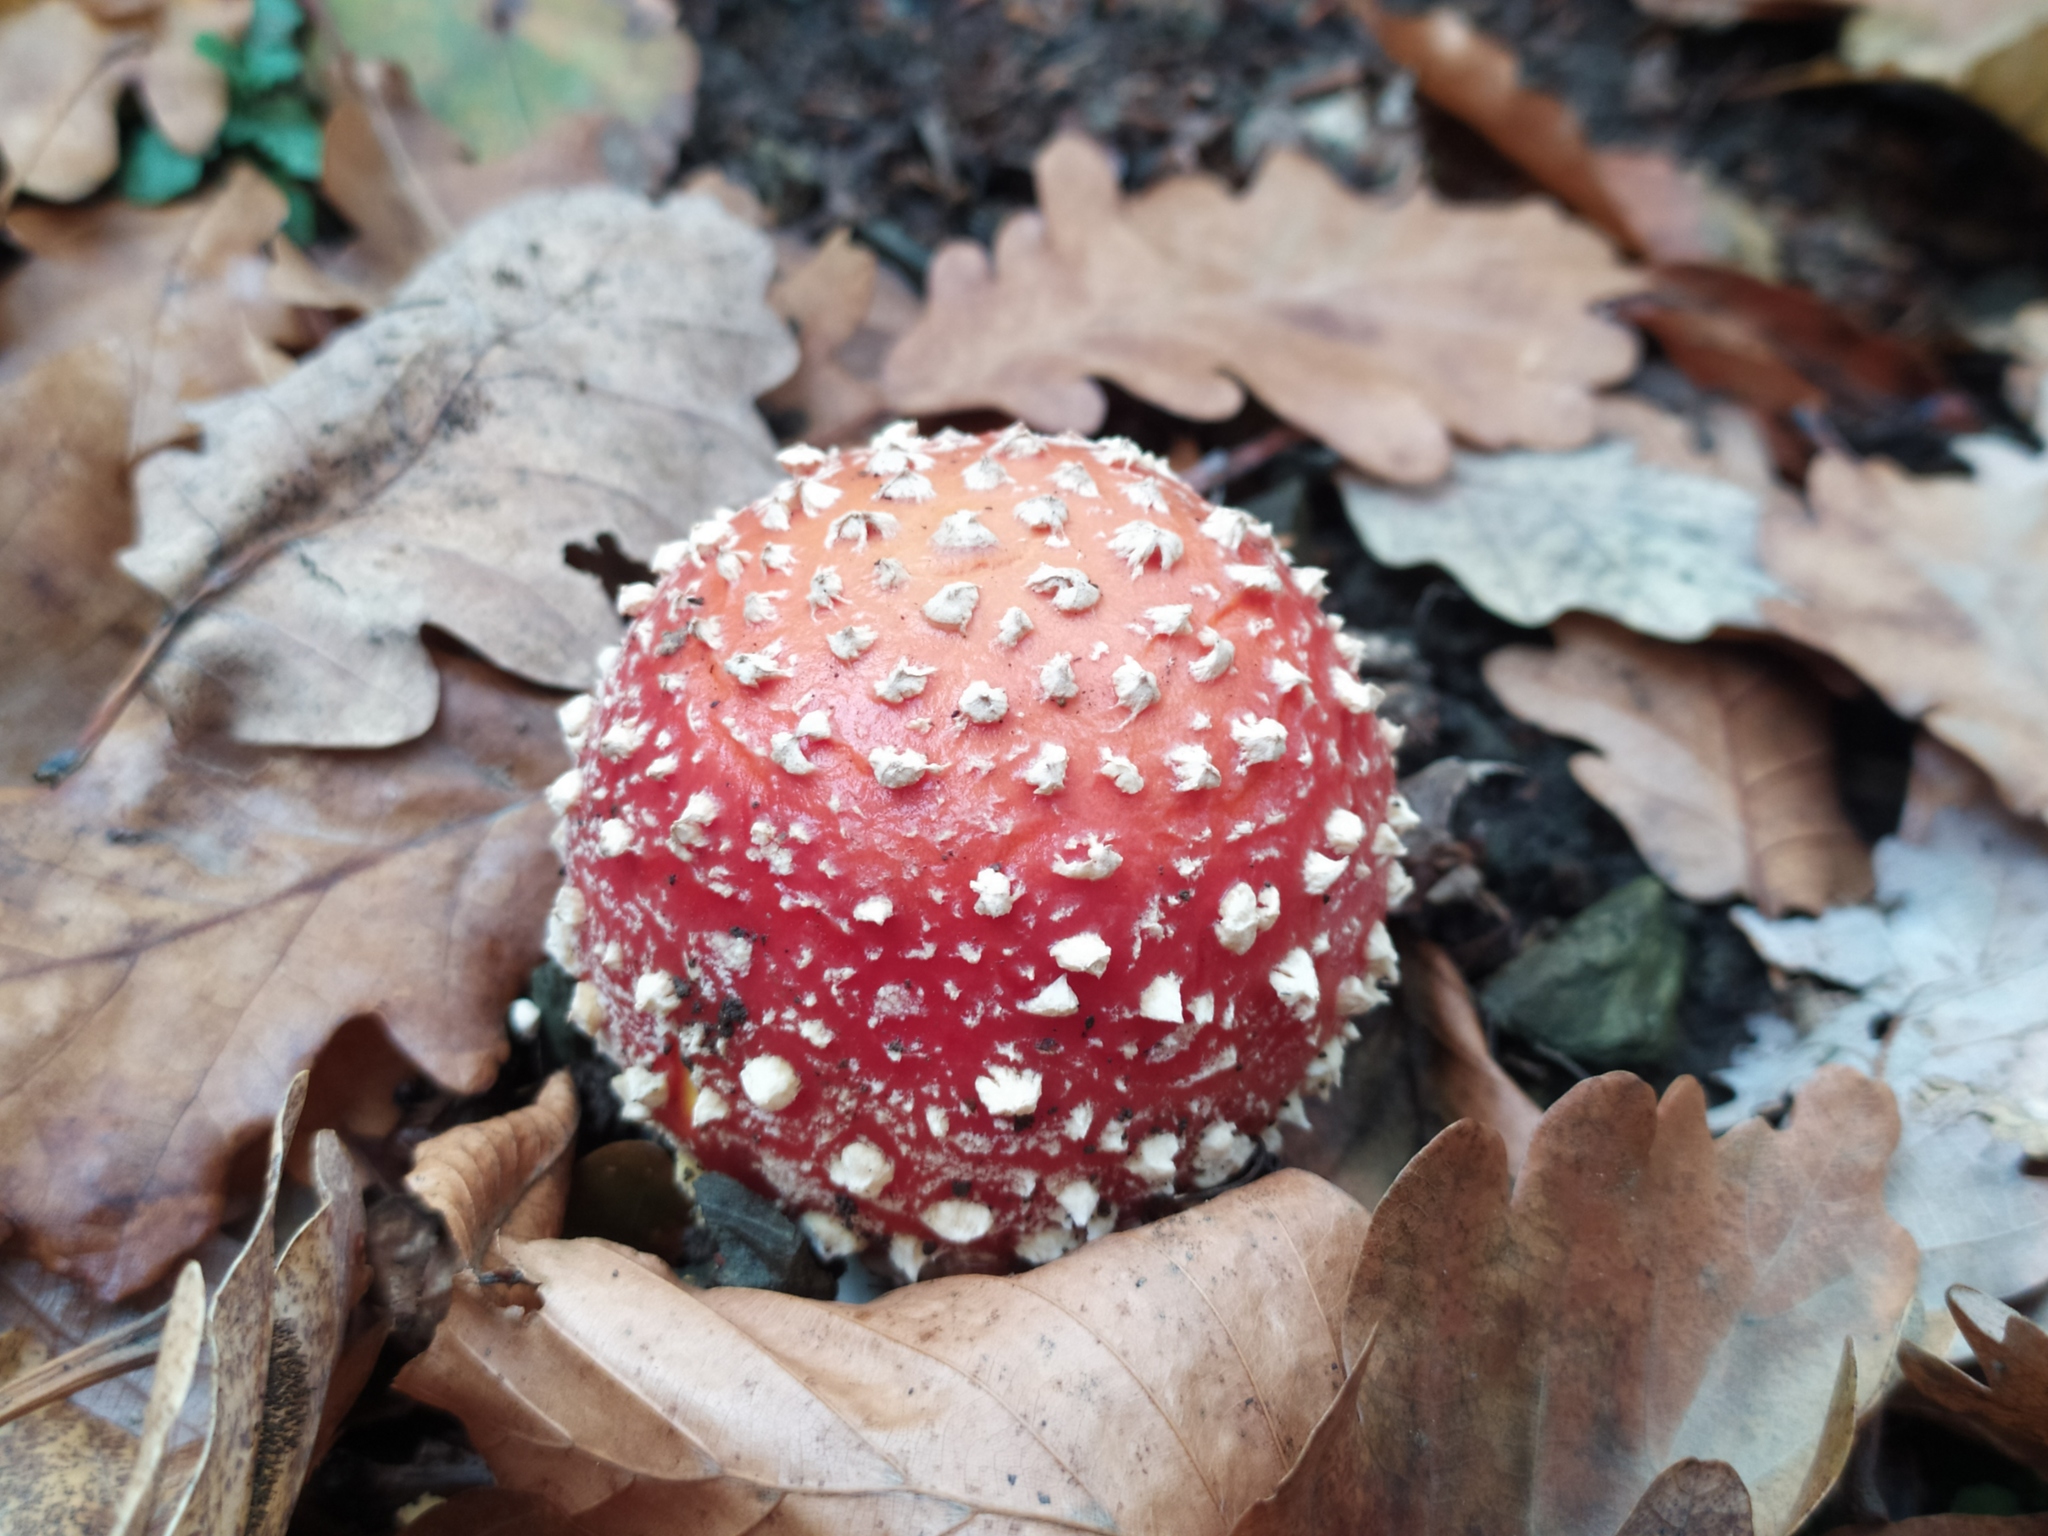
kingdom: Fungi
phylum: Basidiomycota
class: Agaricomycetes
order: Agaricales
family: Amanitaceae
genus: Amanita
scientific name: Amanita muscaria
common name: Fly agaric
